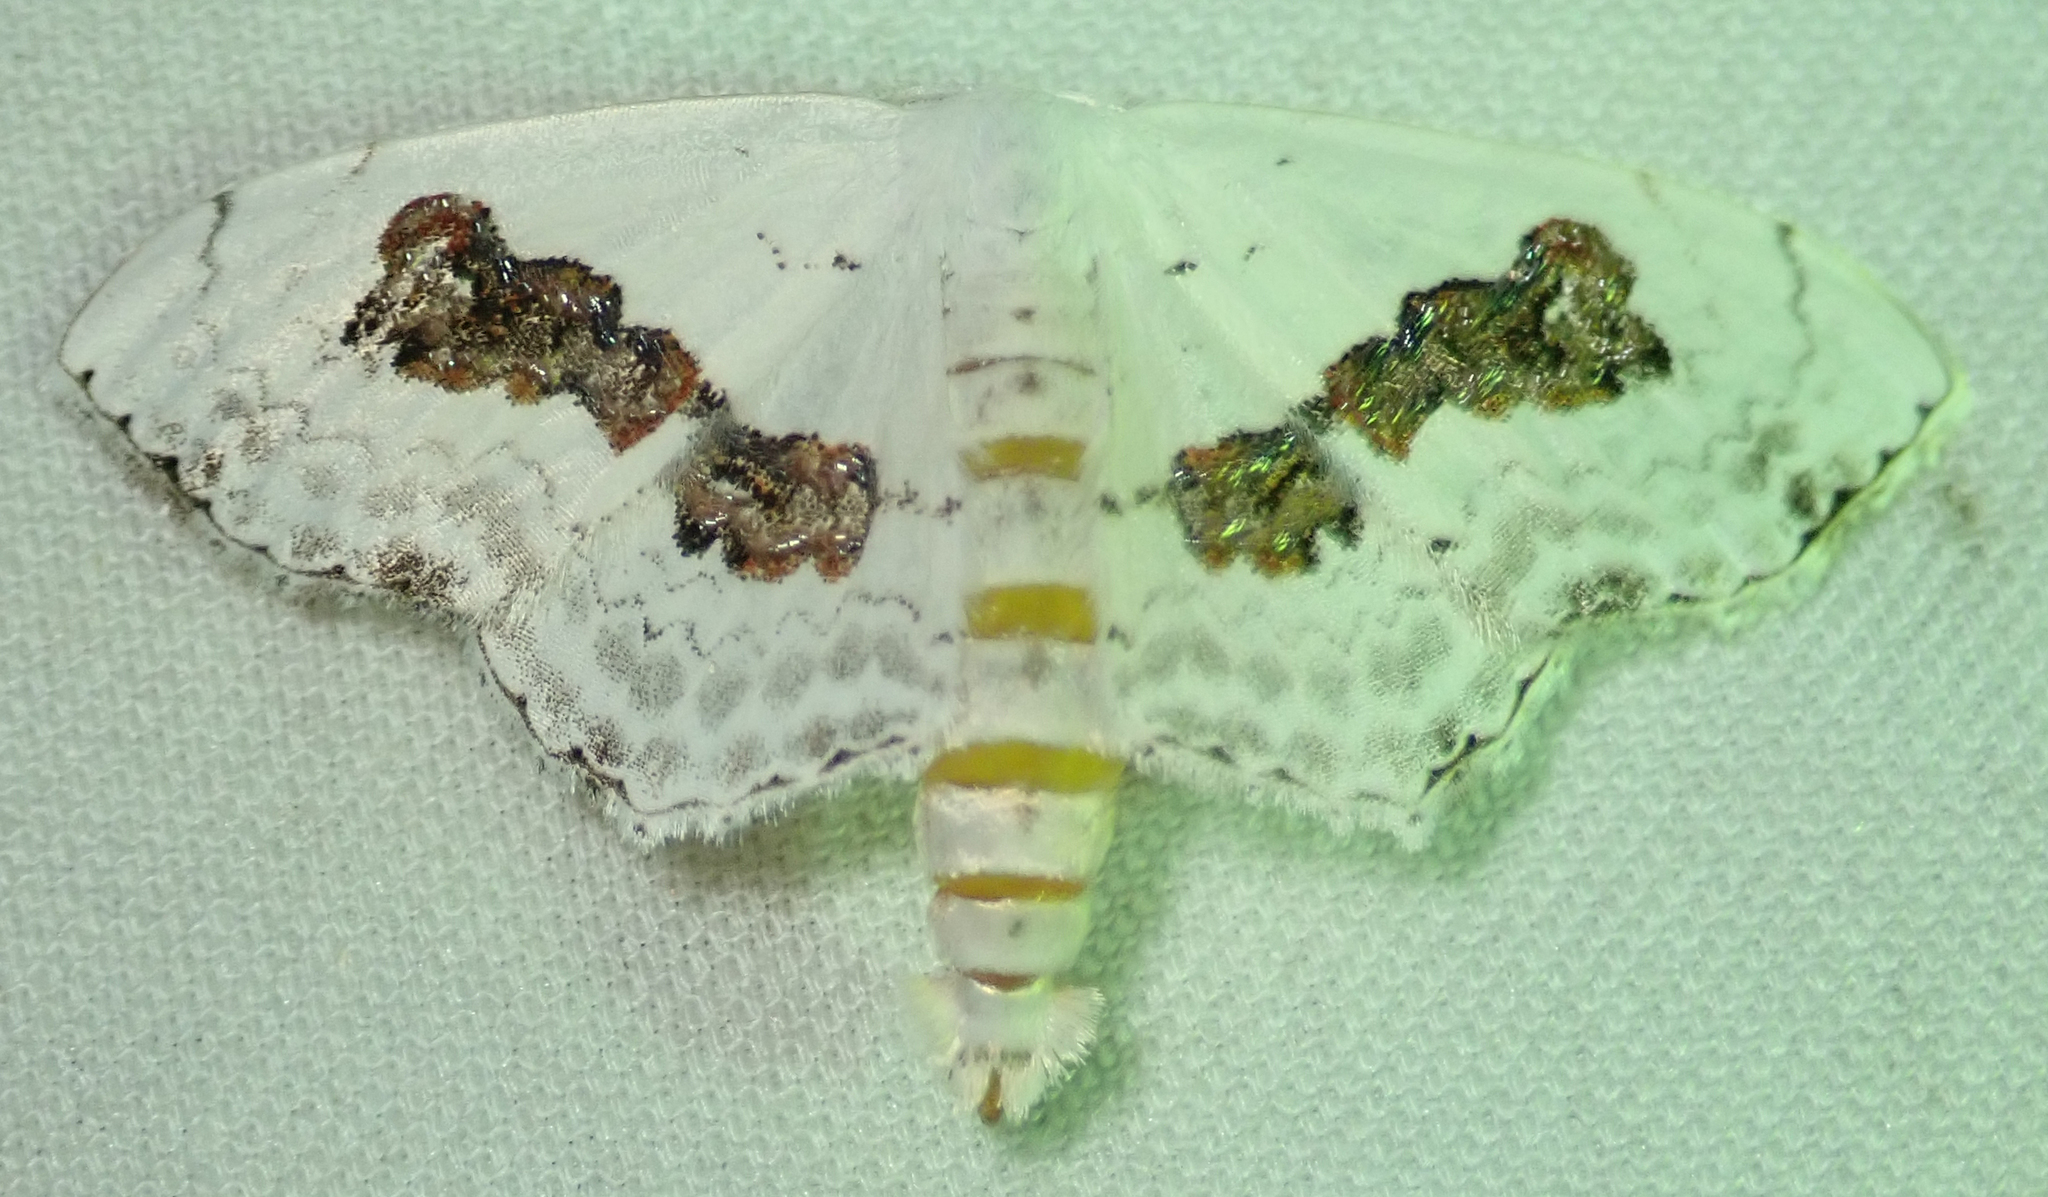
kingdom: Animalia
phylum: Arthropoda
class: Insecta
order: Lepidoptera
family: Geometridae
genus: Problepsis
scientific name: Problepsis
